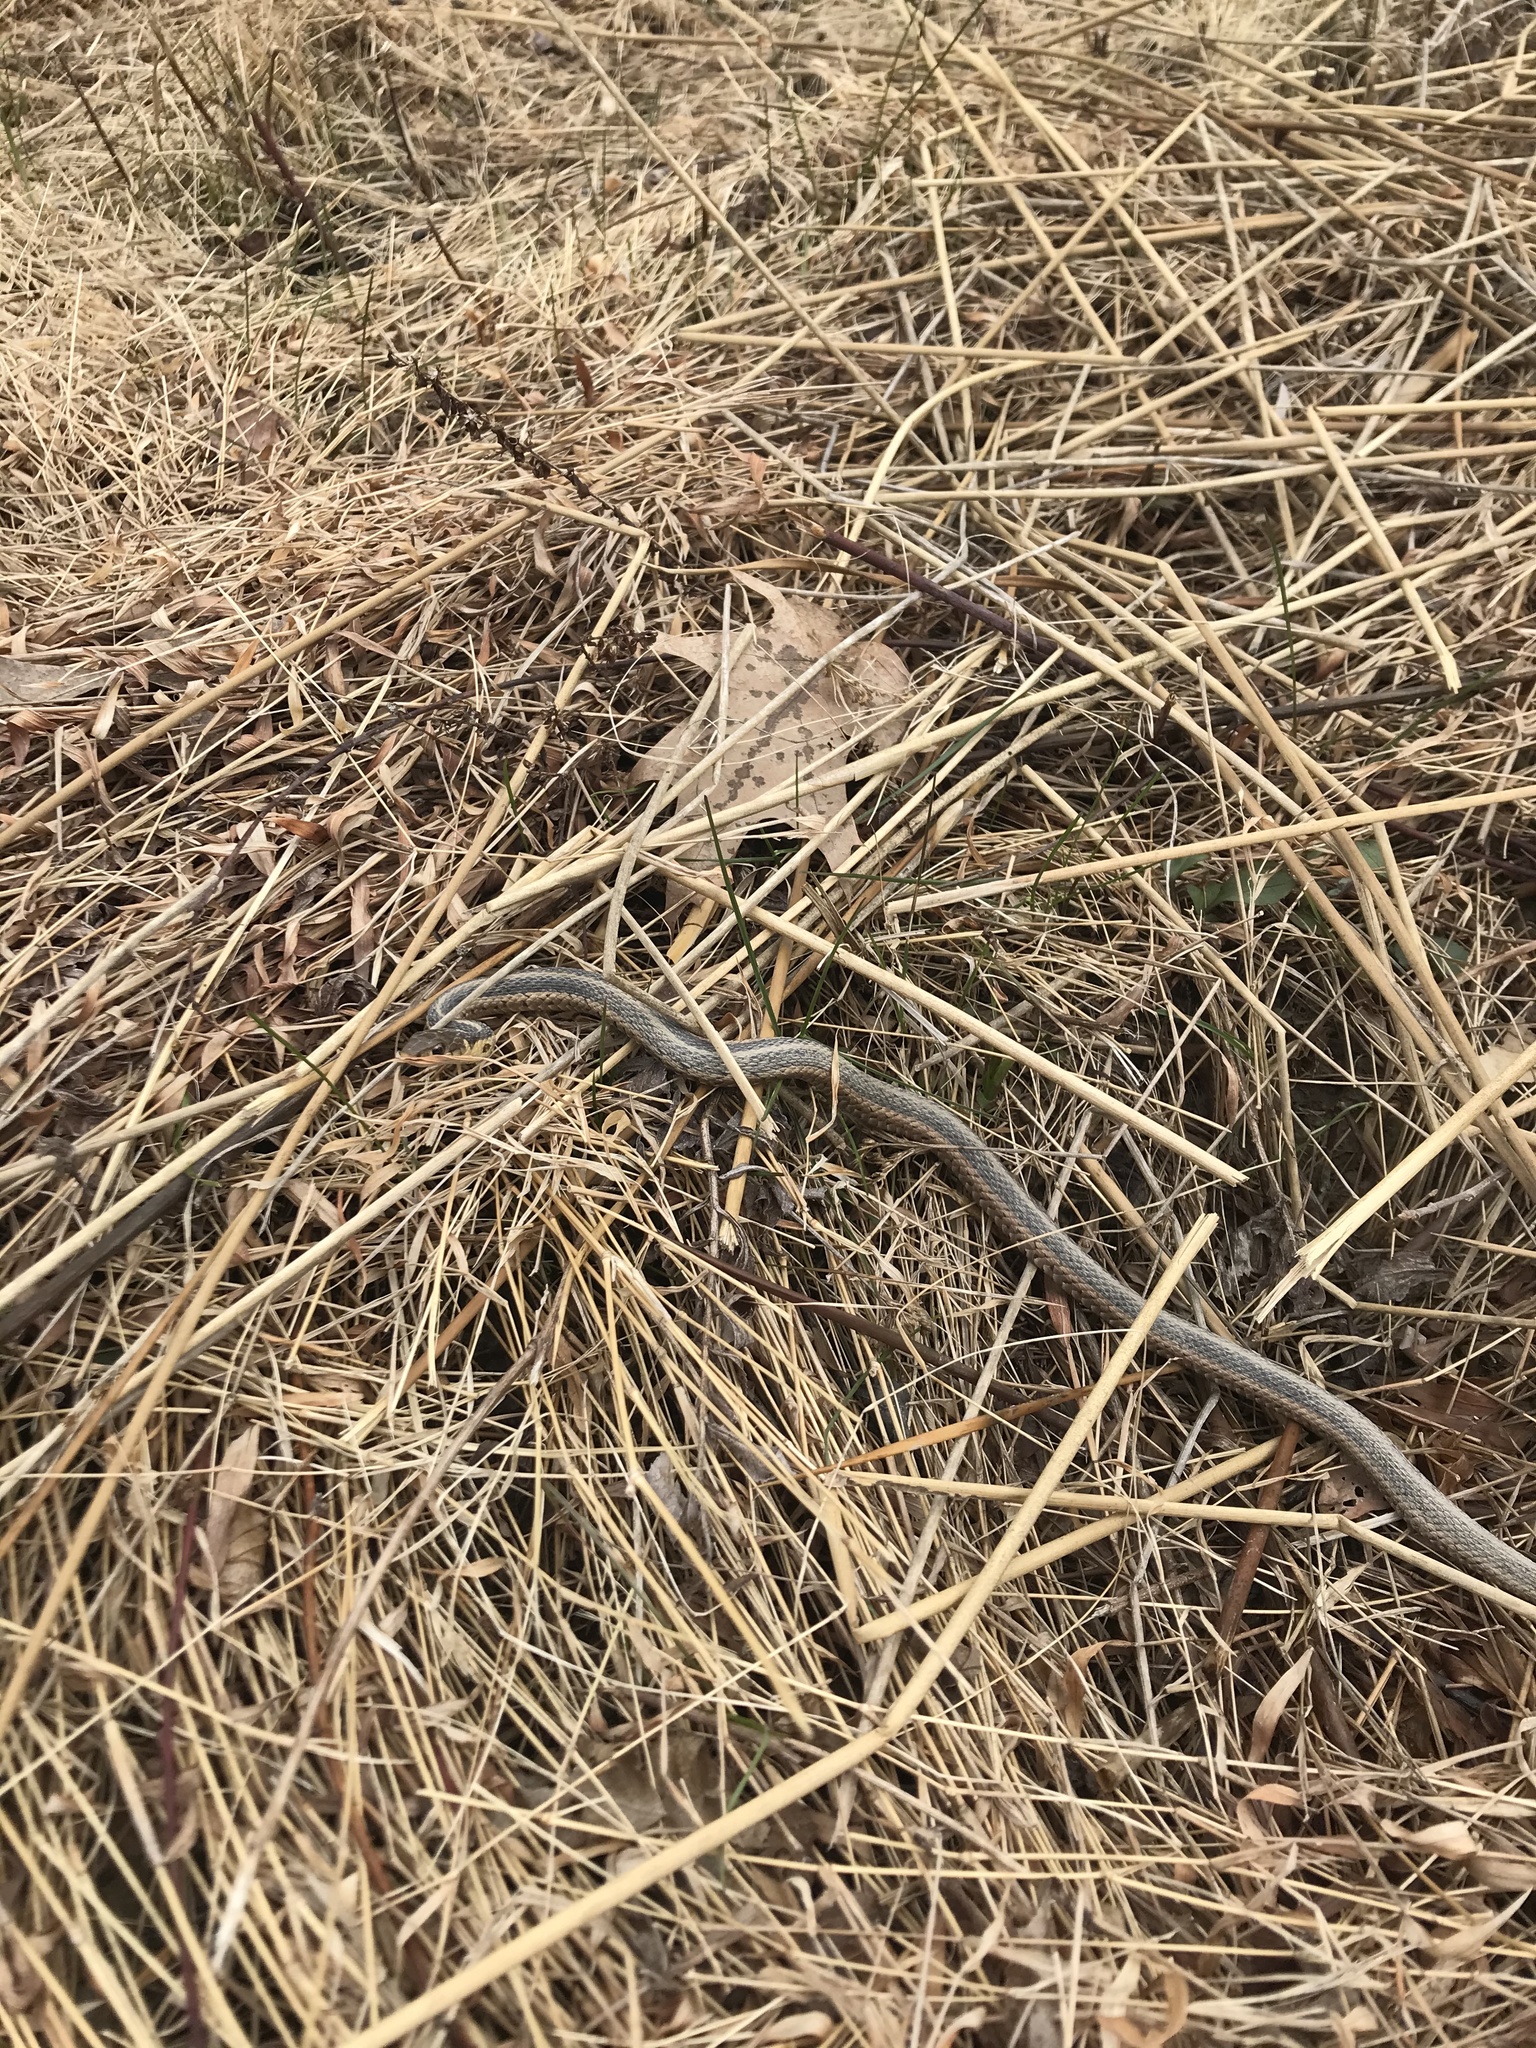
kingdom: Animalia
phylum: Chordata
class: Squamata
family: Colubridae
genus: Thamnophis
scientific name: Thamnophis sirtalis
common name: Common garter snake
